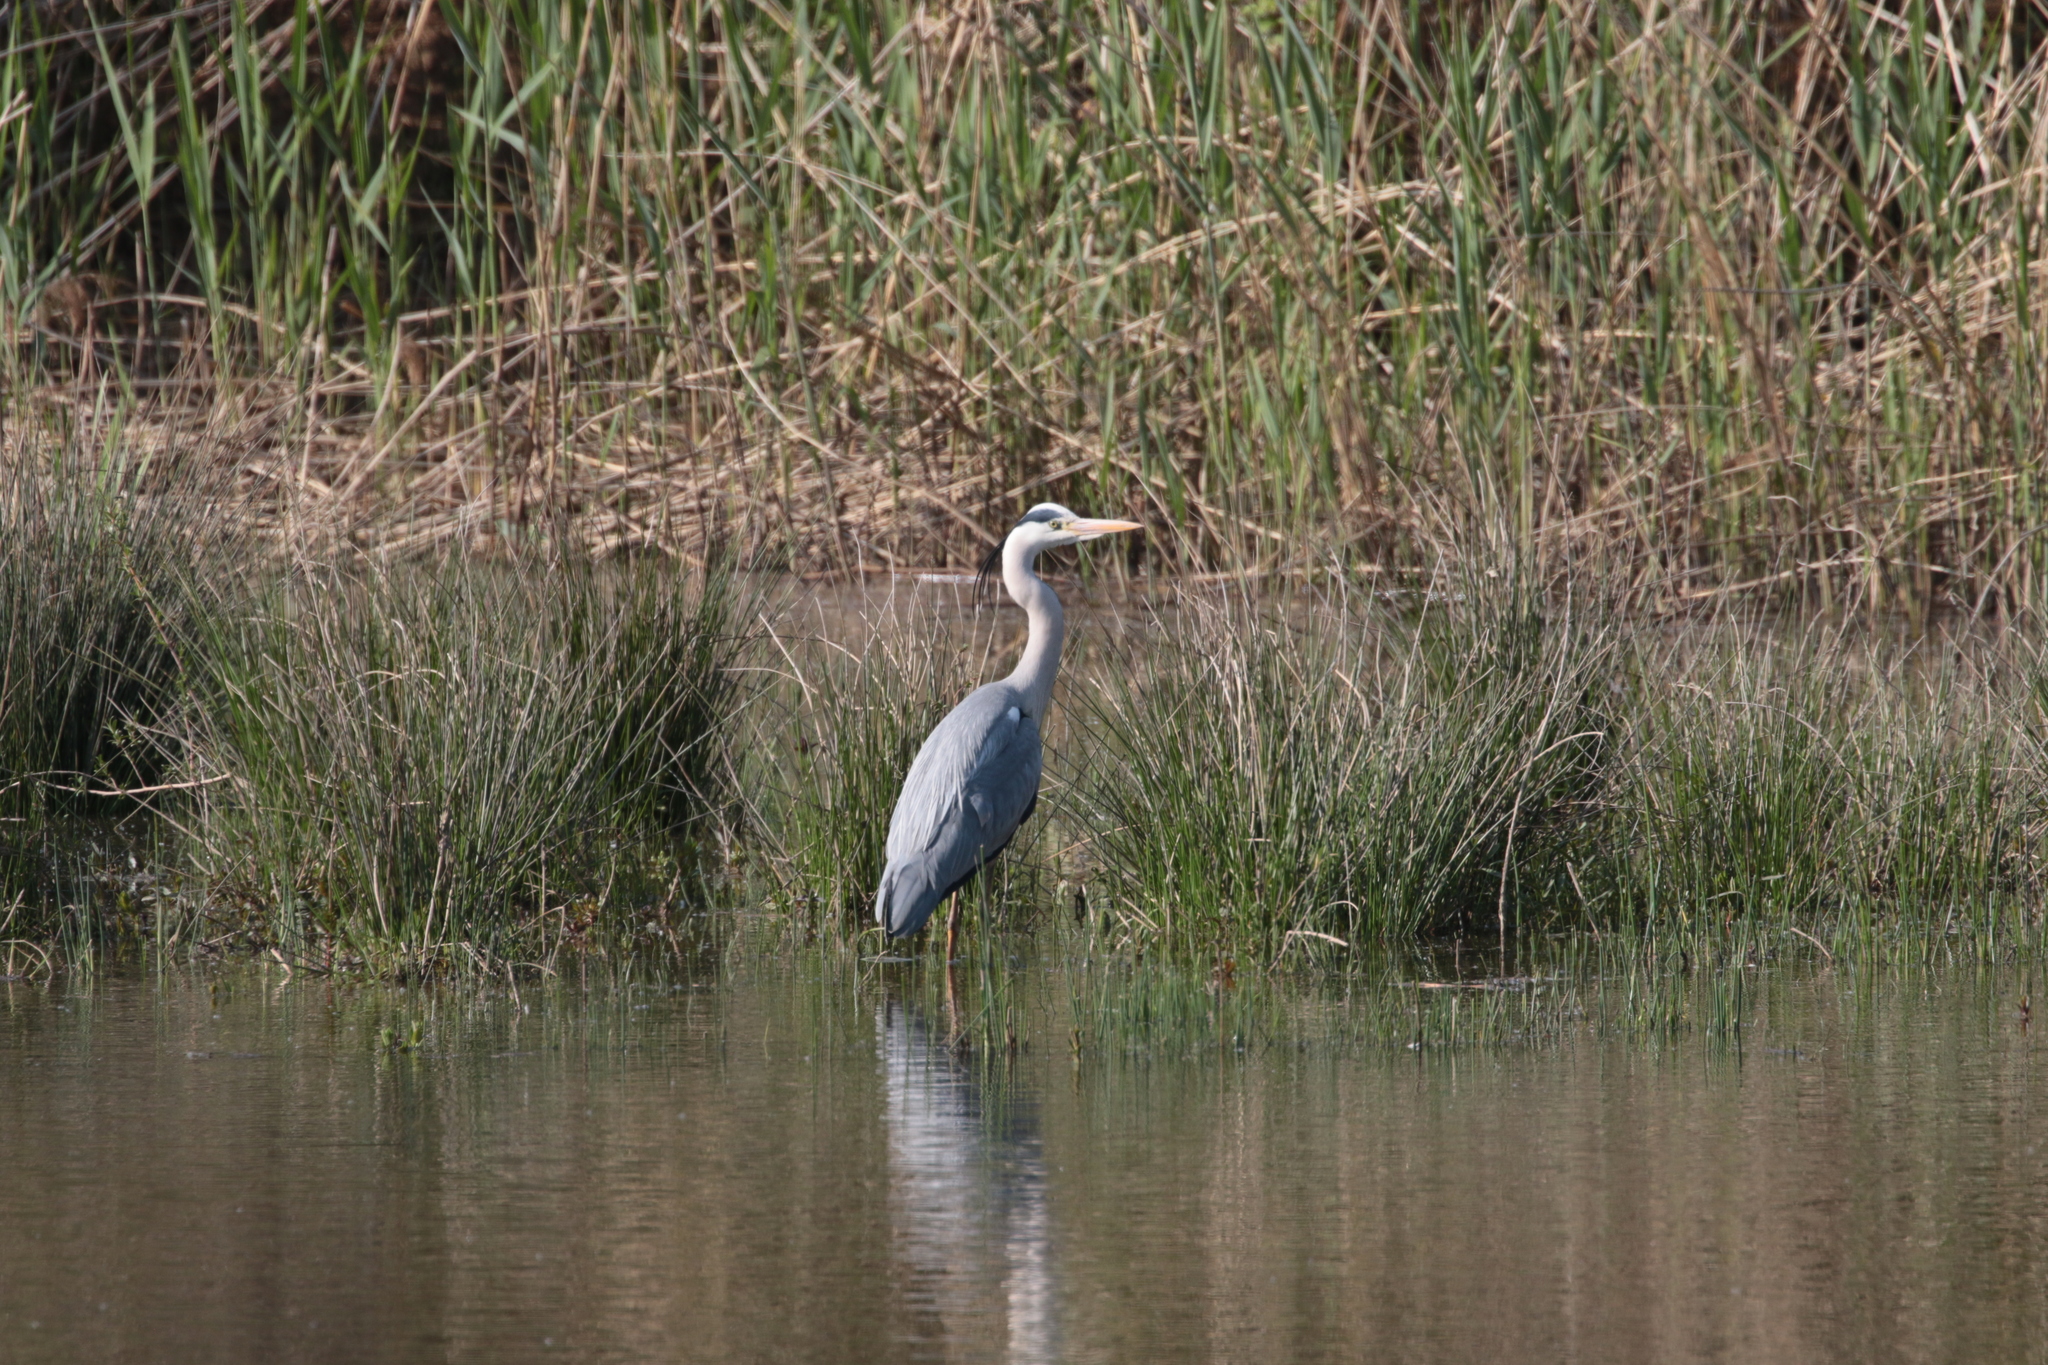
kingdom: Animalia
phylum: Chordata
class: Aves
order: Pelecaniformes
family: Ardeidae
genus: Ardea
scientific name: Ardea cinerea
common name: Grey heron
